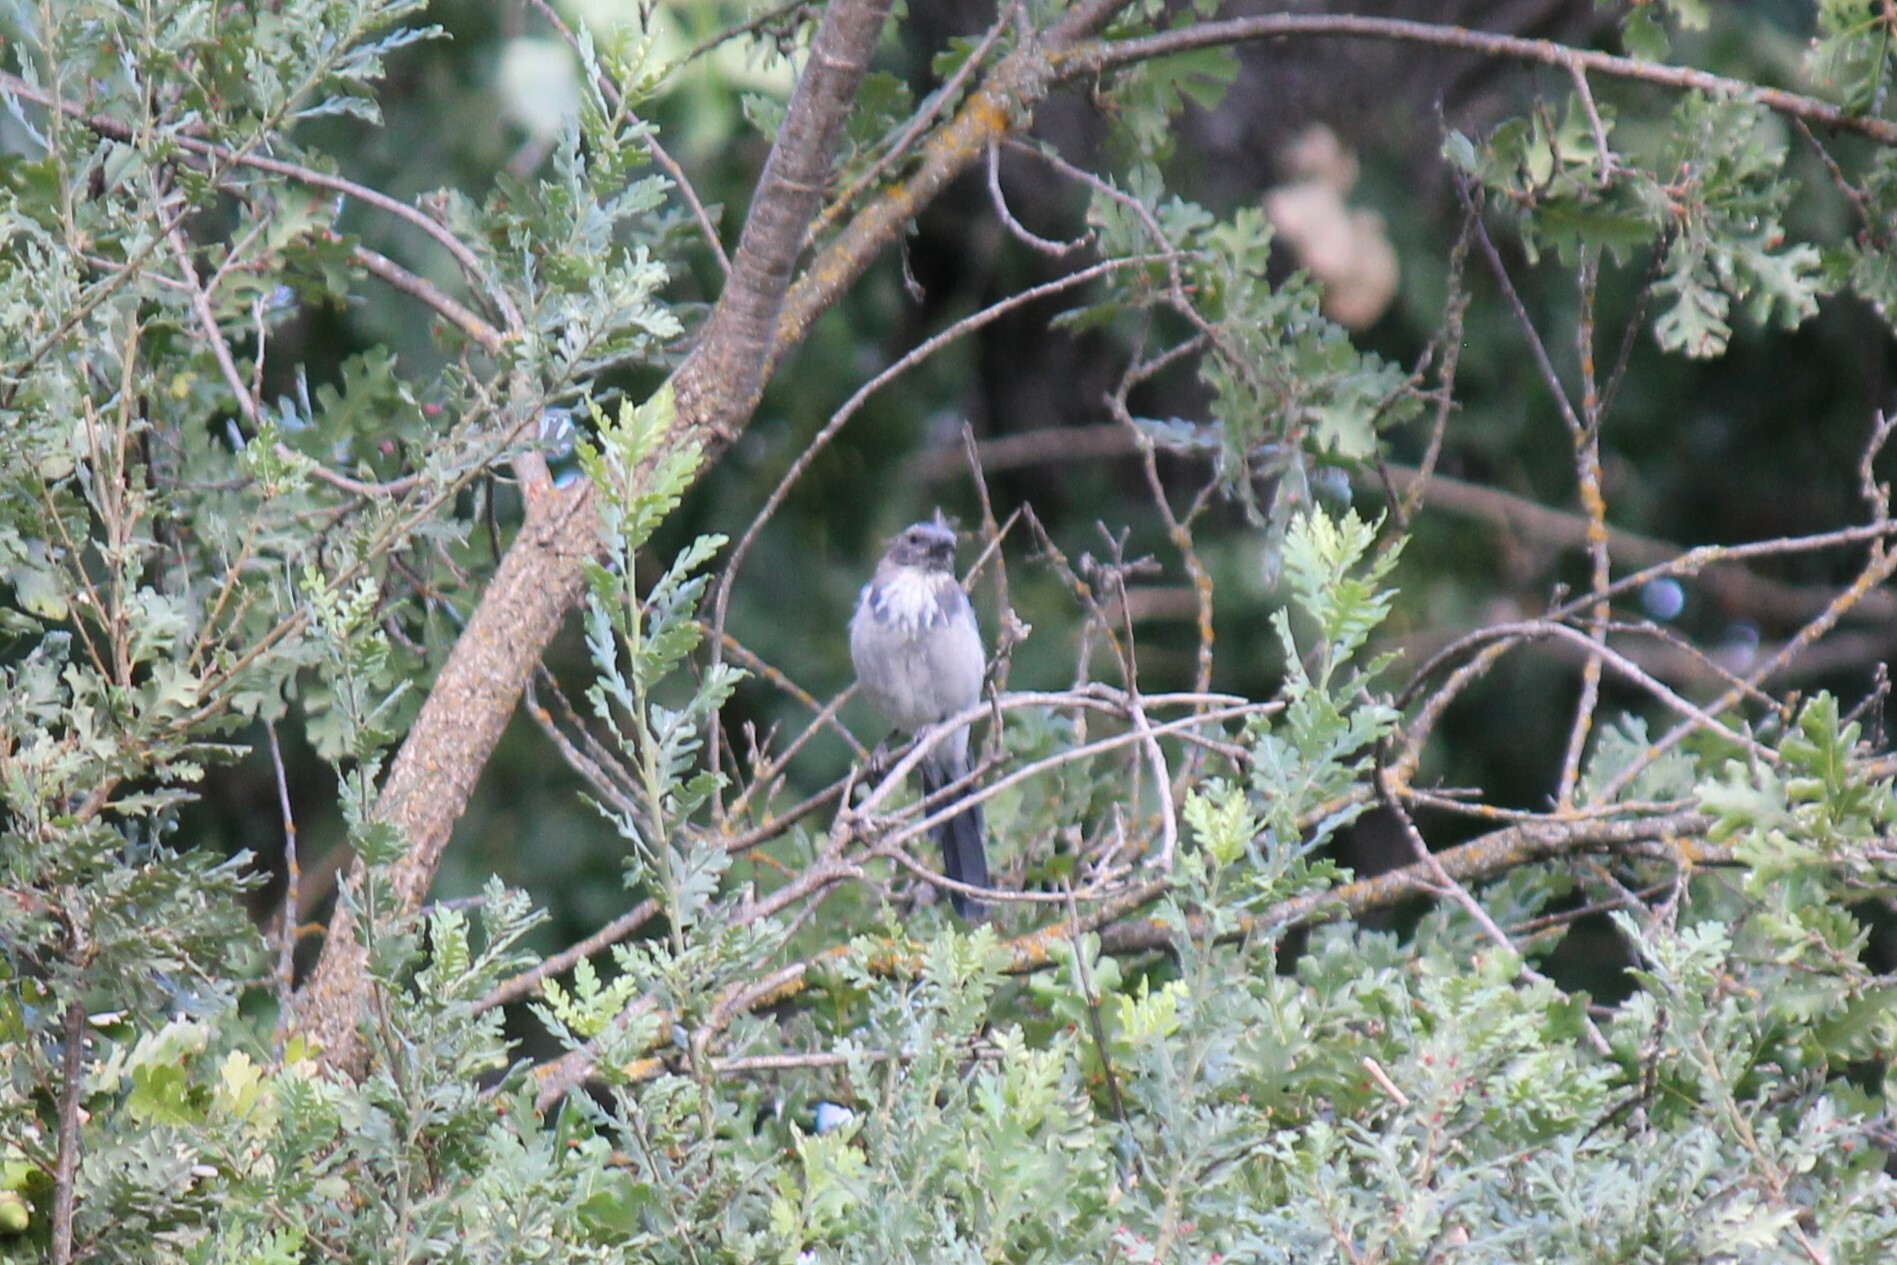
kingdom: Animalia
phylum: Chordata
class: Aves
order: Passeriformes
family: Corvidae
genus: Aphelocoma
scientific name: Aphelocoma californica
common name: California scrub-jay
